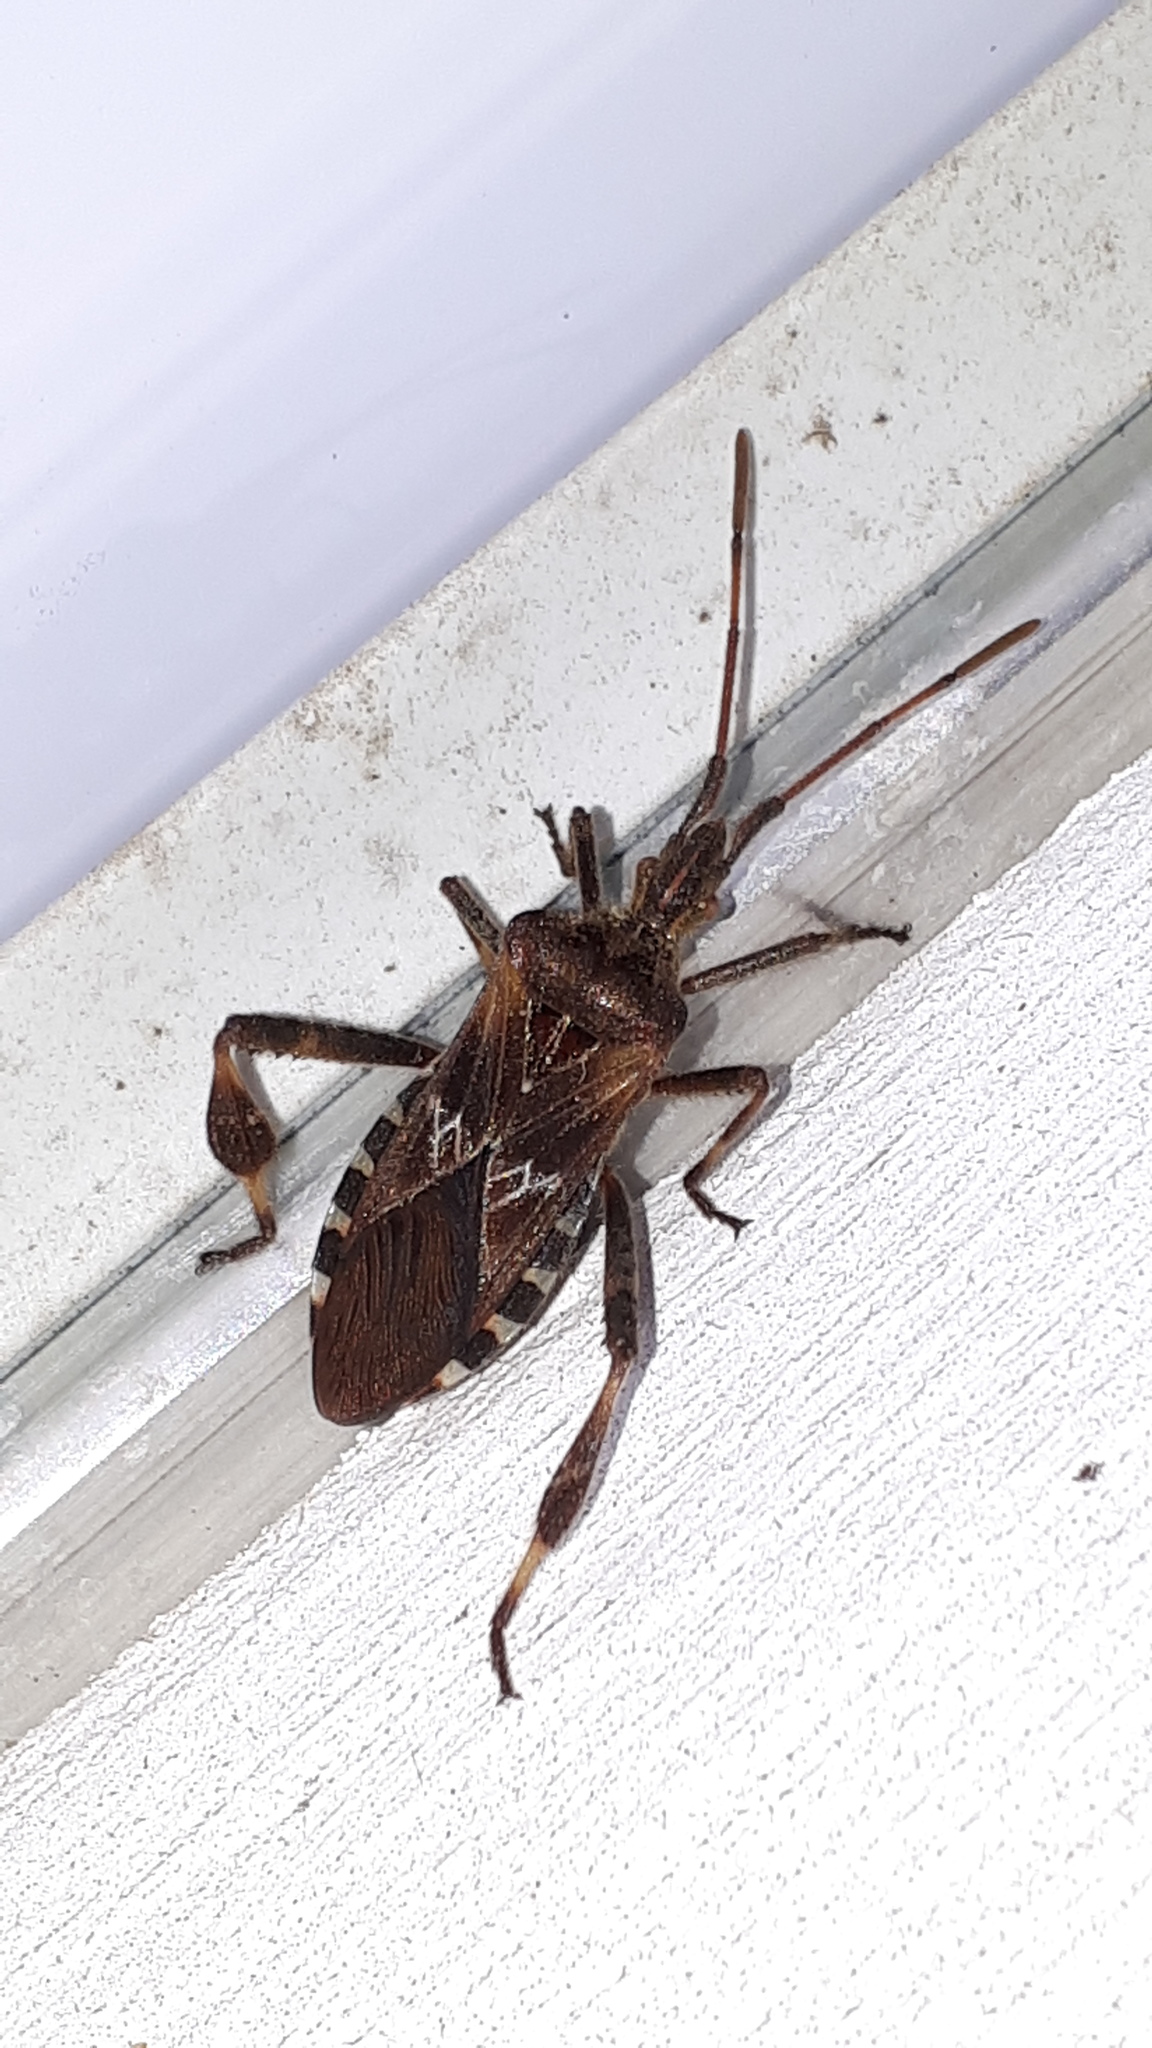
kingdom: Animalia
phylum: Arthropoda
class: Insecta
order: Hemiptera
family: Coreidae
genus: Leptoglossus
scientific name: Leptoglossus occidentalis
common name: Western conifer-seed bug
